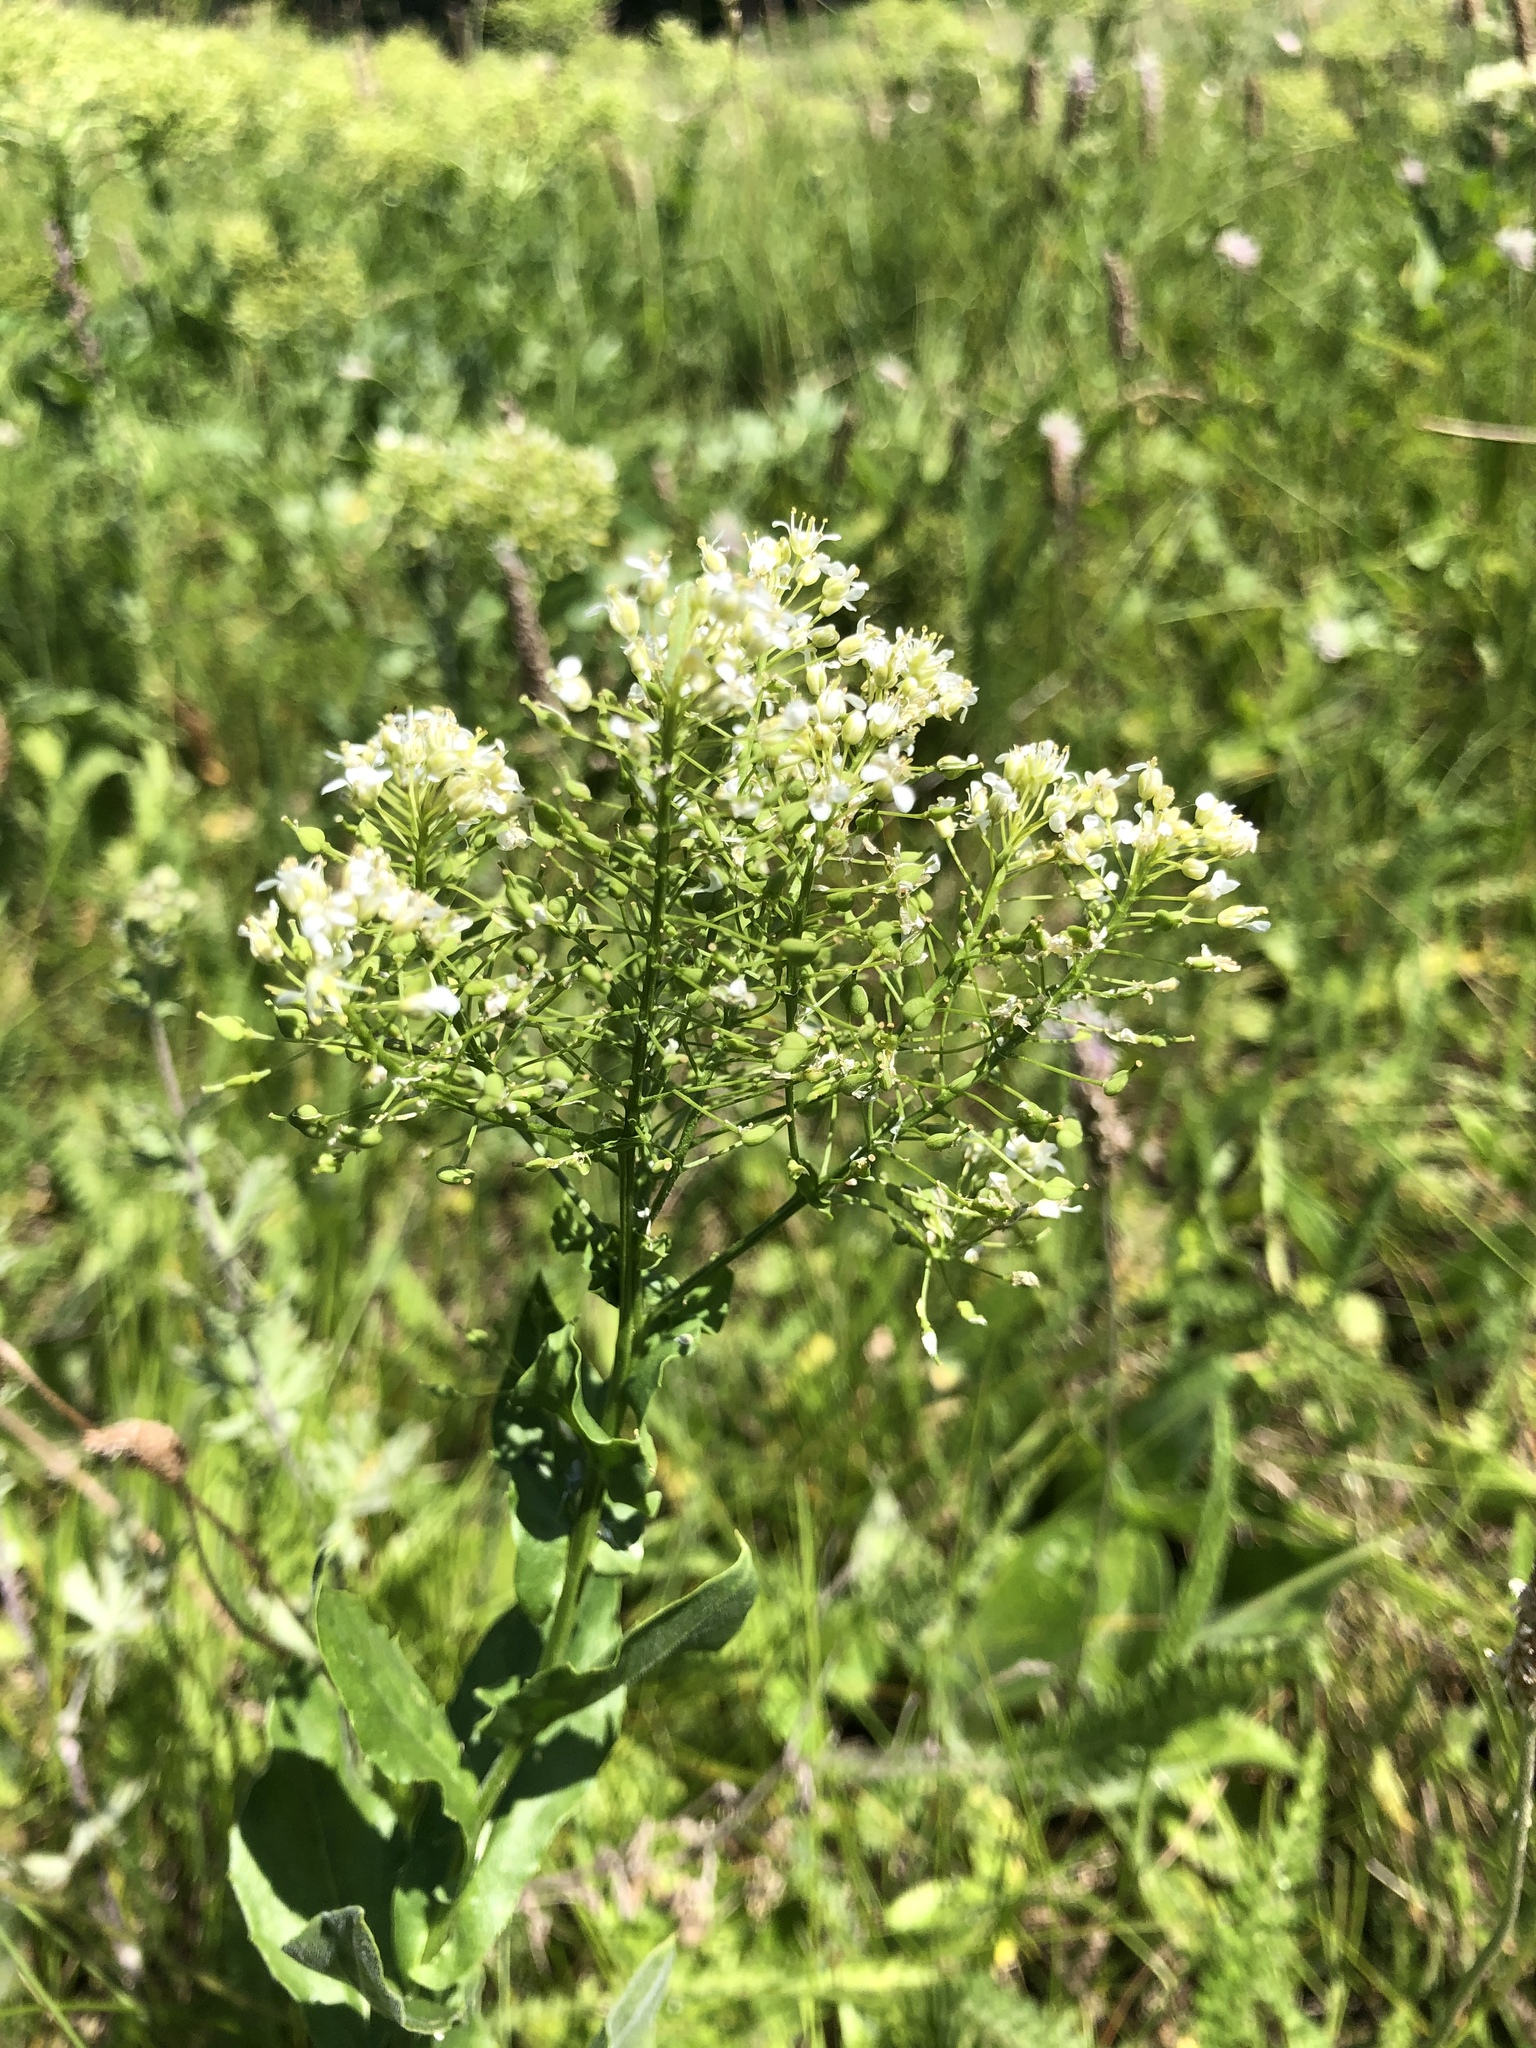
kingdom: Plantae
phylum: Tracheophyta
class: Magnoliopsida
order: Brassicales
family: Brassicaceae
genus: Lepidium
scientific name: Lepidium draba
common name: Hoary cress
